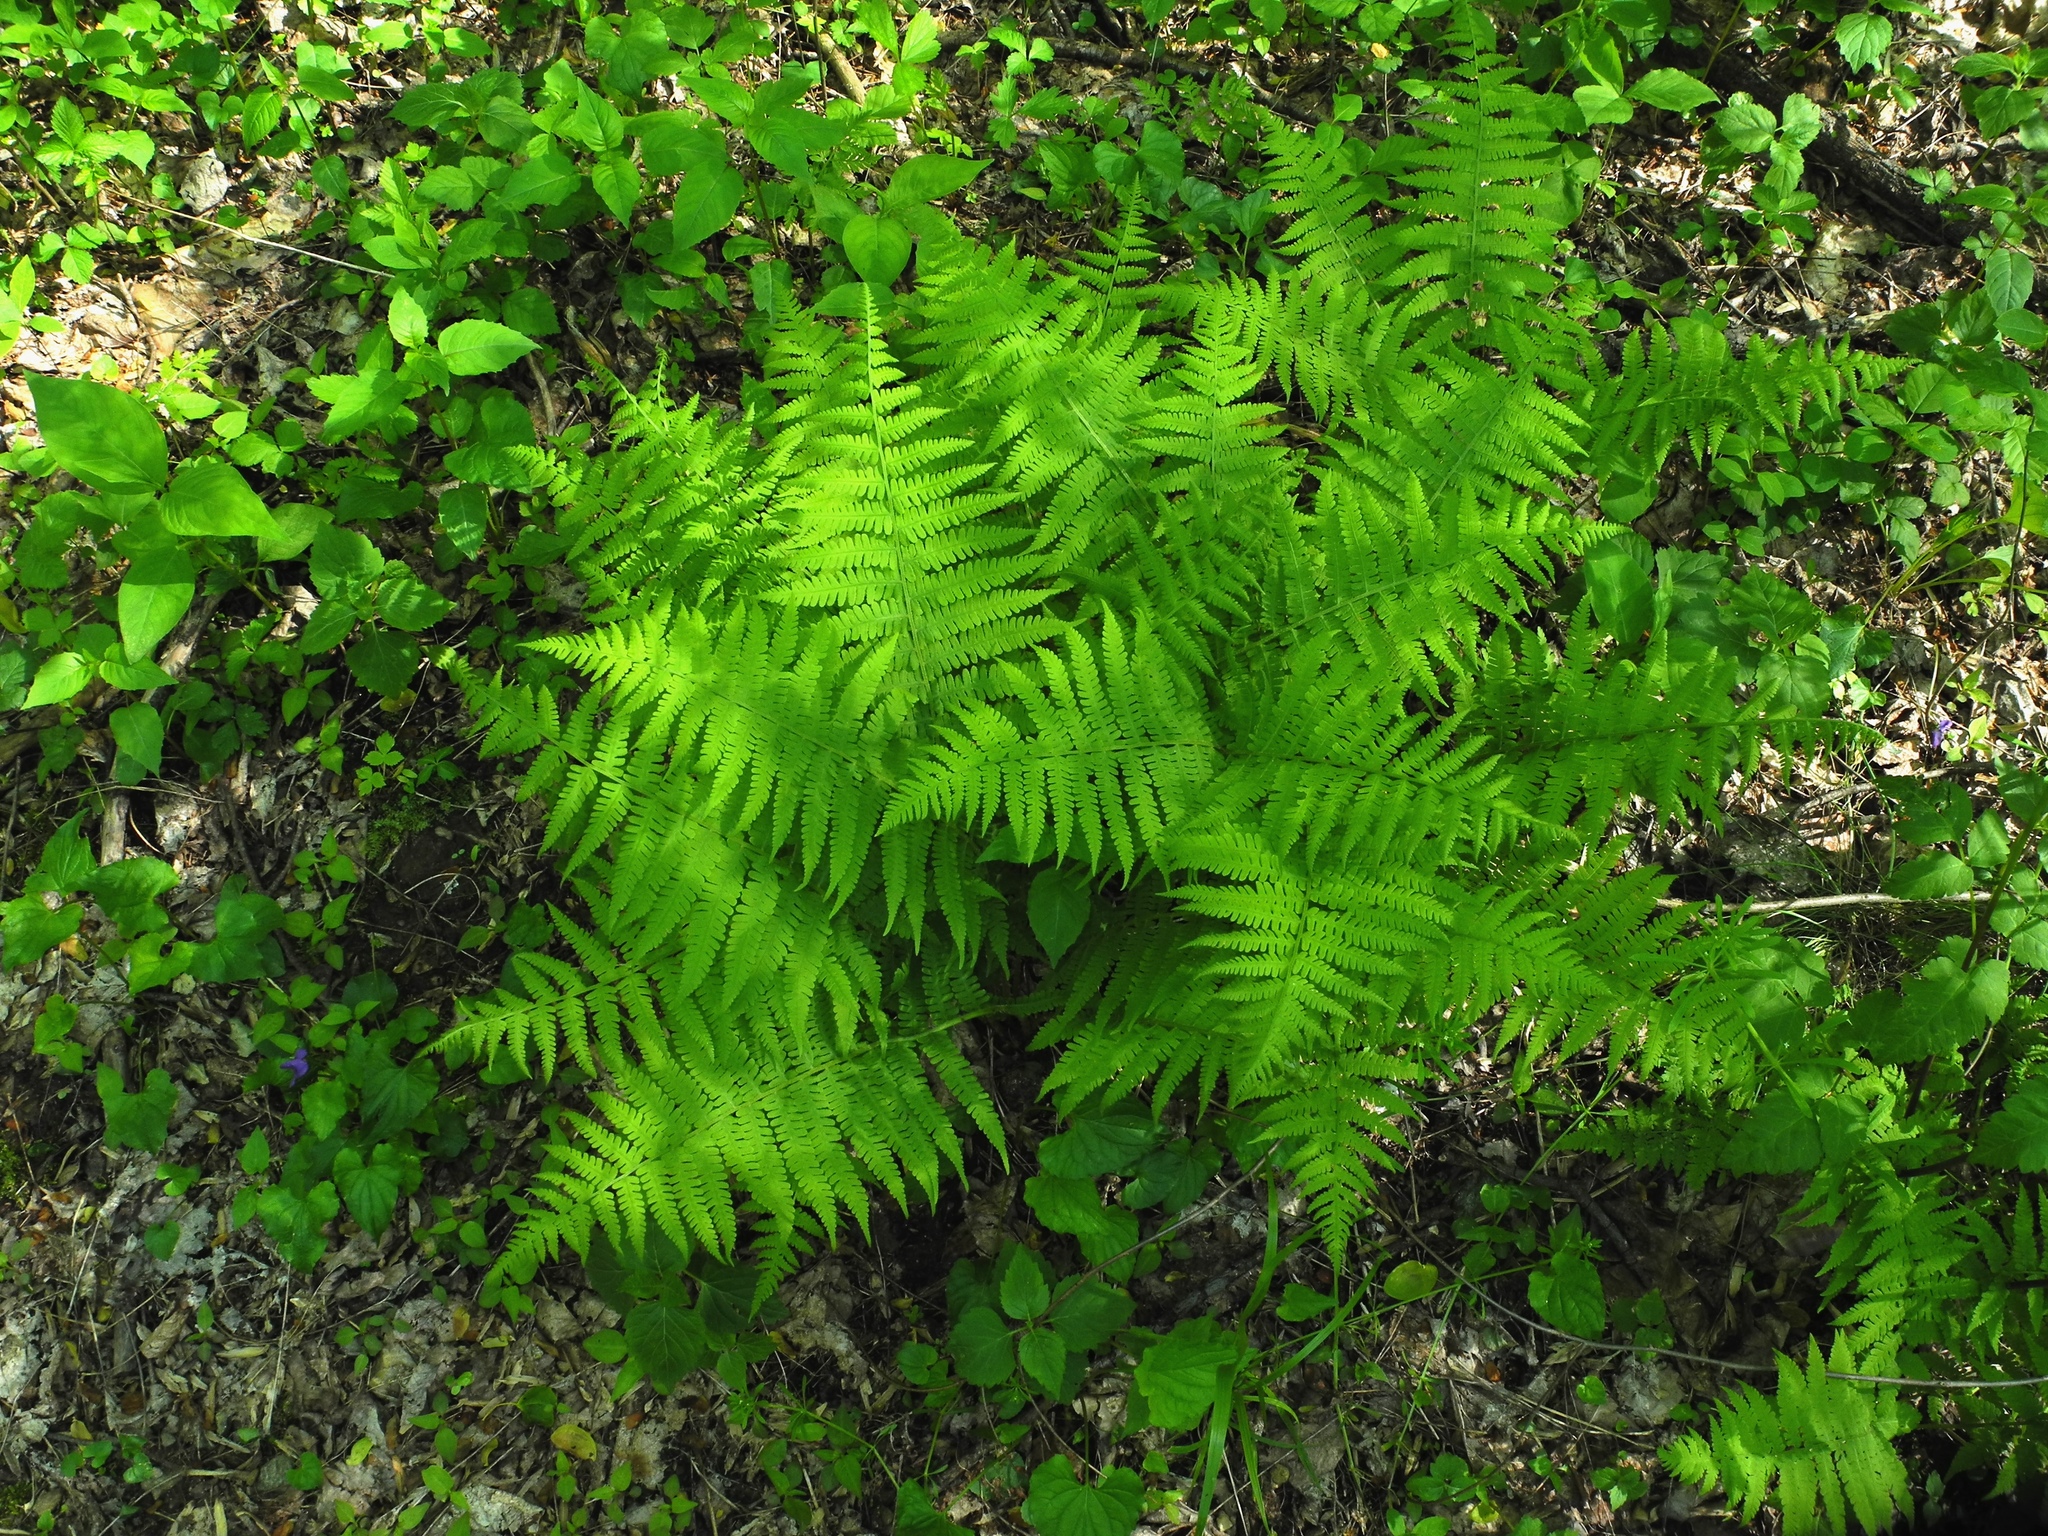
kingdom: Plantae
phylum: Tracheophyta
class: Polypodiopsida
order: Polypodiales
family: Athyriaceae
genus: Deparia
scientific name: Deparia acrostichoides
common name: Silver false spleenwort
